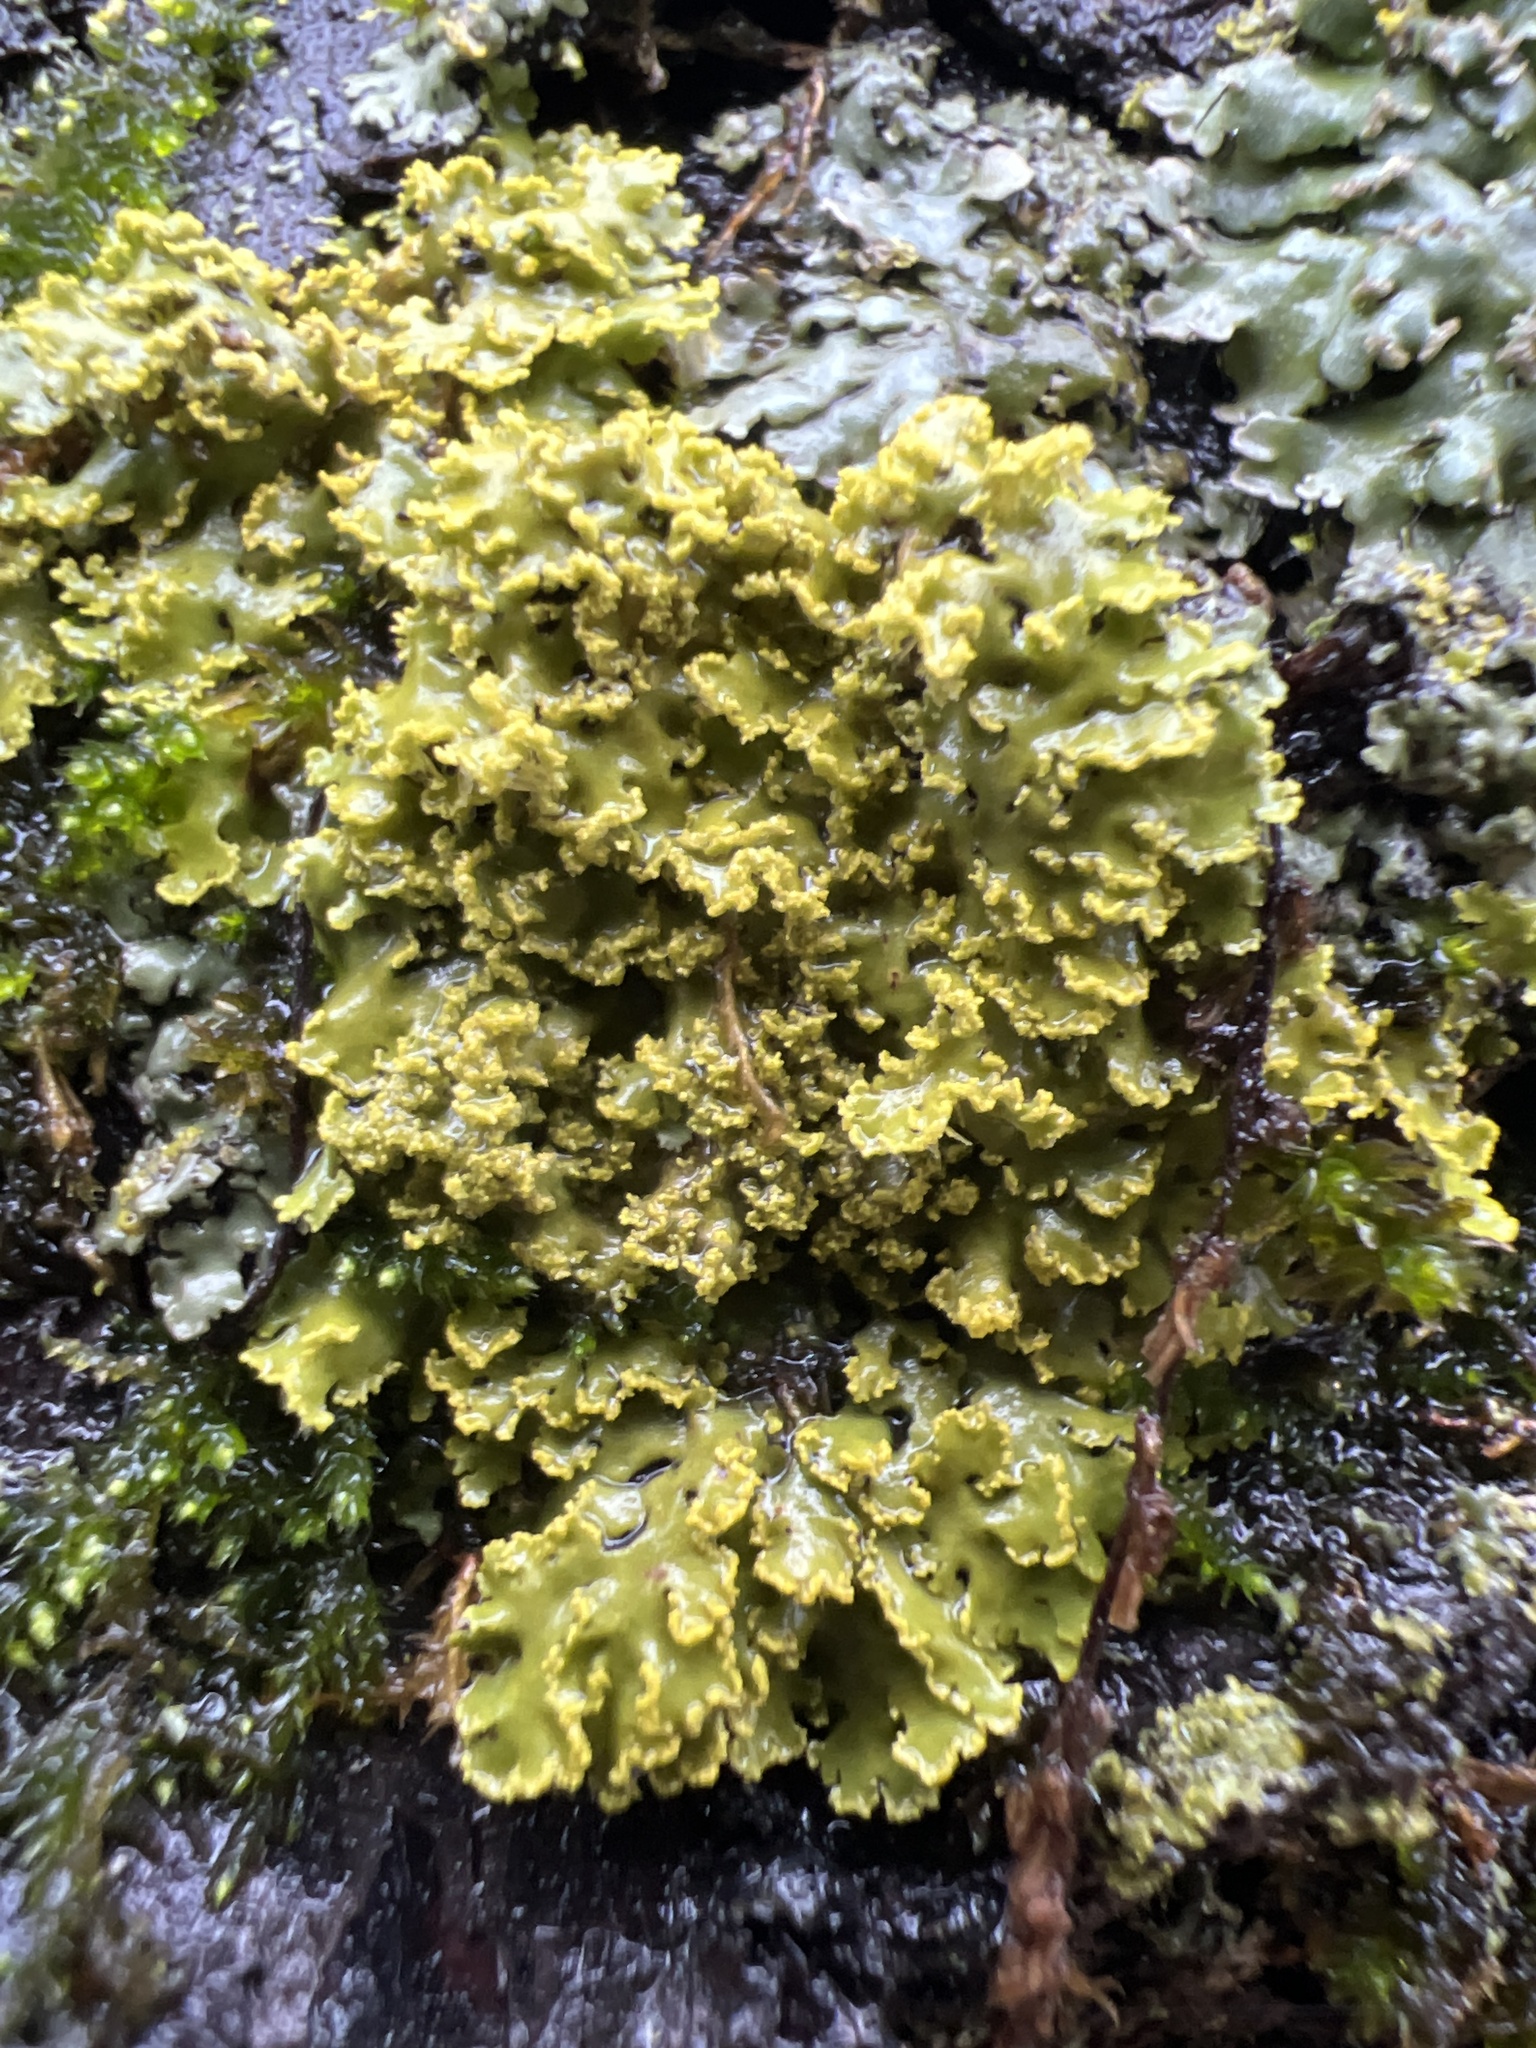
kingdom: Fungi
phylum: Ascomycota
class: Lecanoromycetes
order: Teloschistales
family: Teloschistaceae
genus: Xanthoria
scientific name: Xanthoria ulophyllodes
